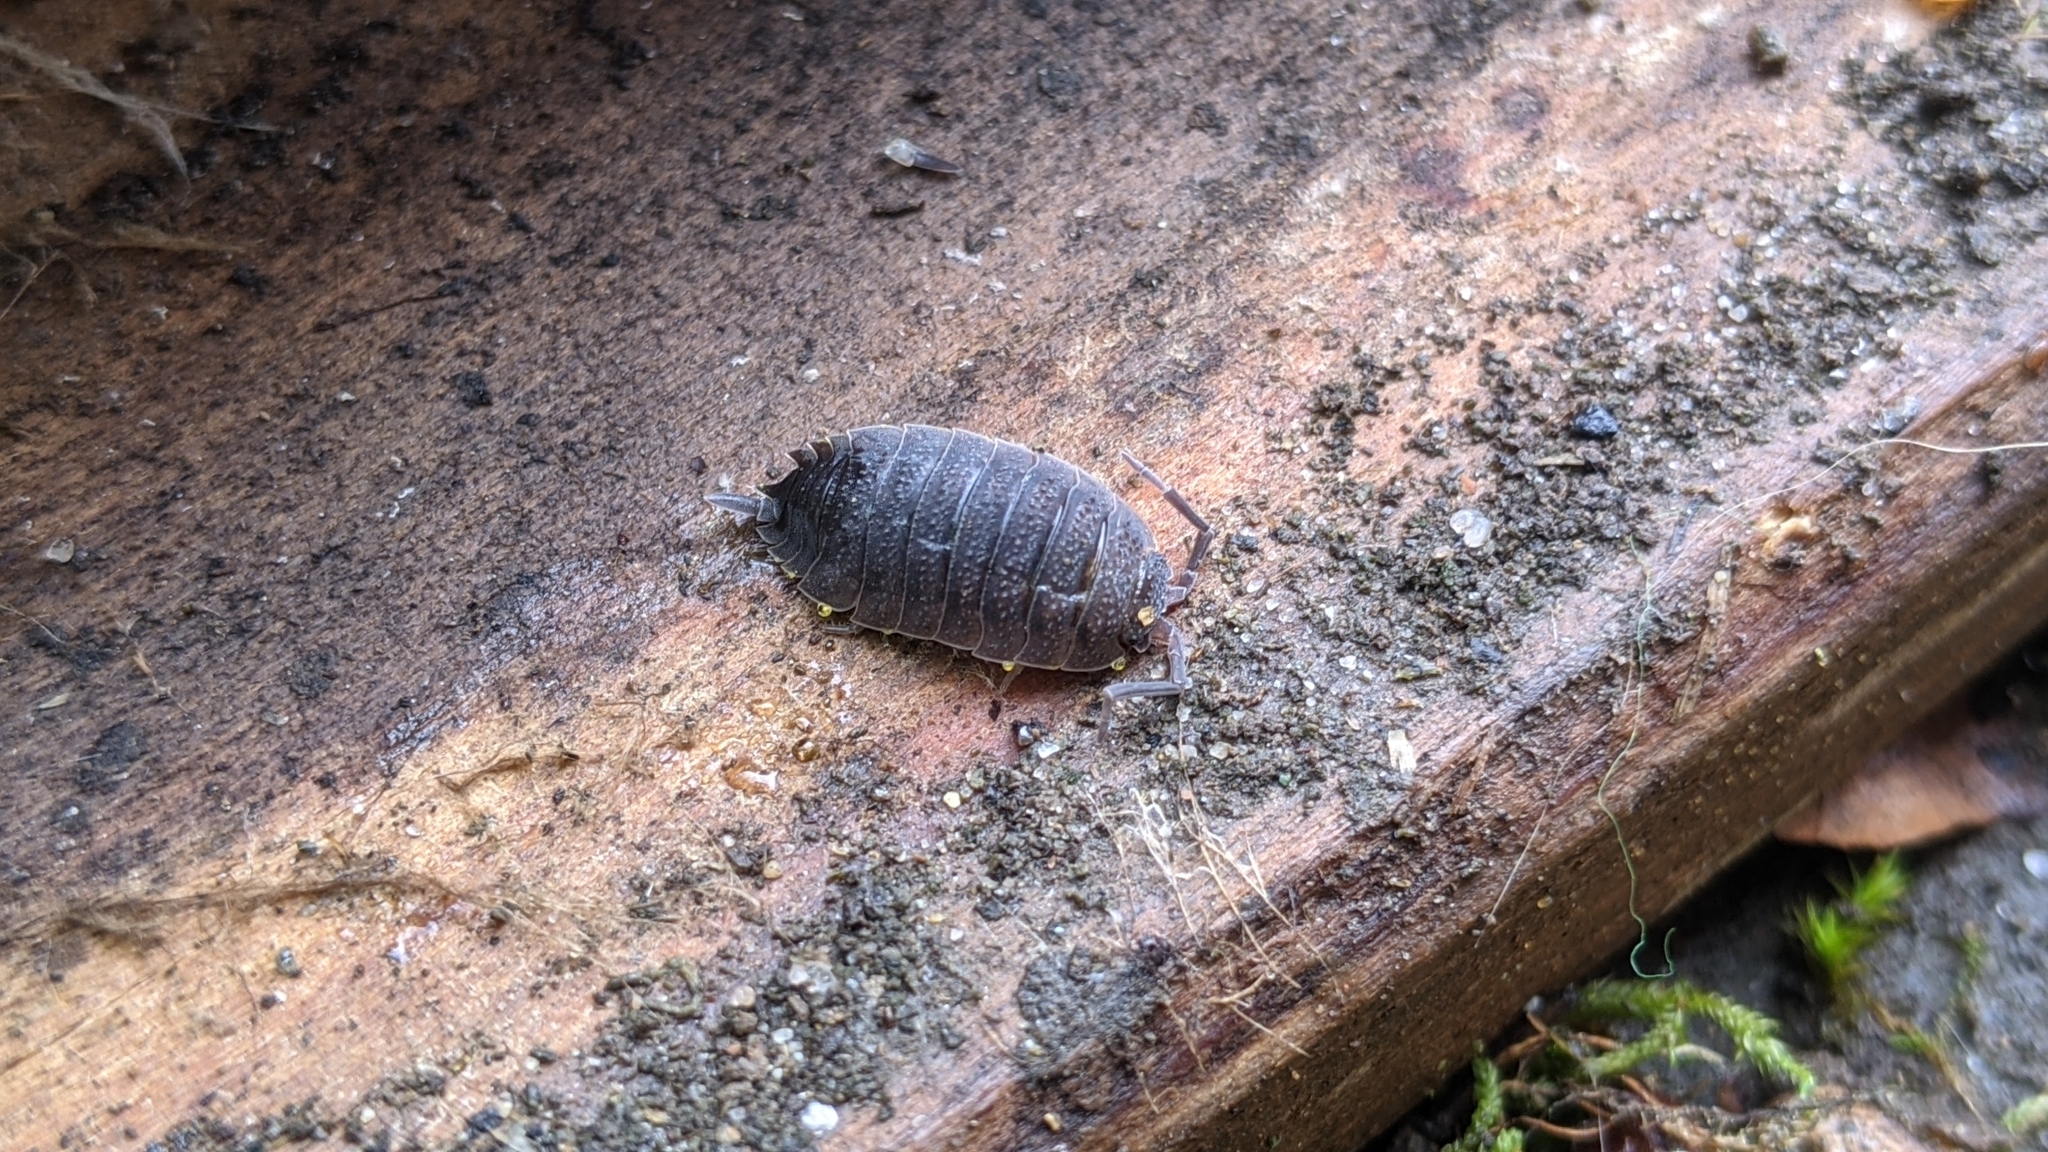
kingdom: Animalia
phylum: Arthropoda
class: Malacostraca
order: Isopoda
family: Porcellionidae
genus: Porcellio
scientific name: Porcellio scaber
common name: Common rough woodlouse
